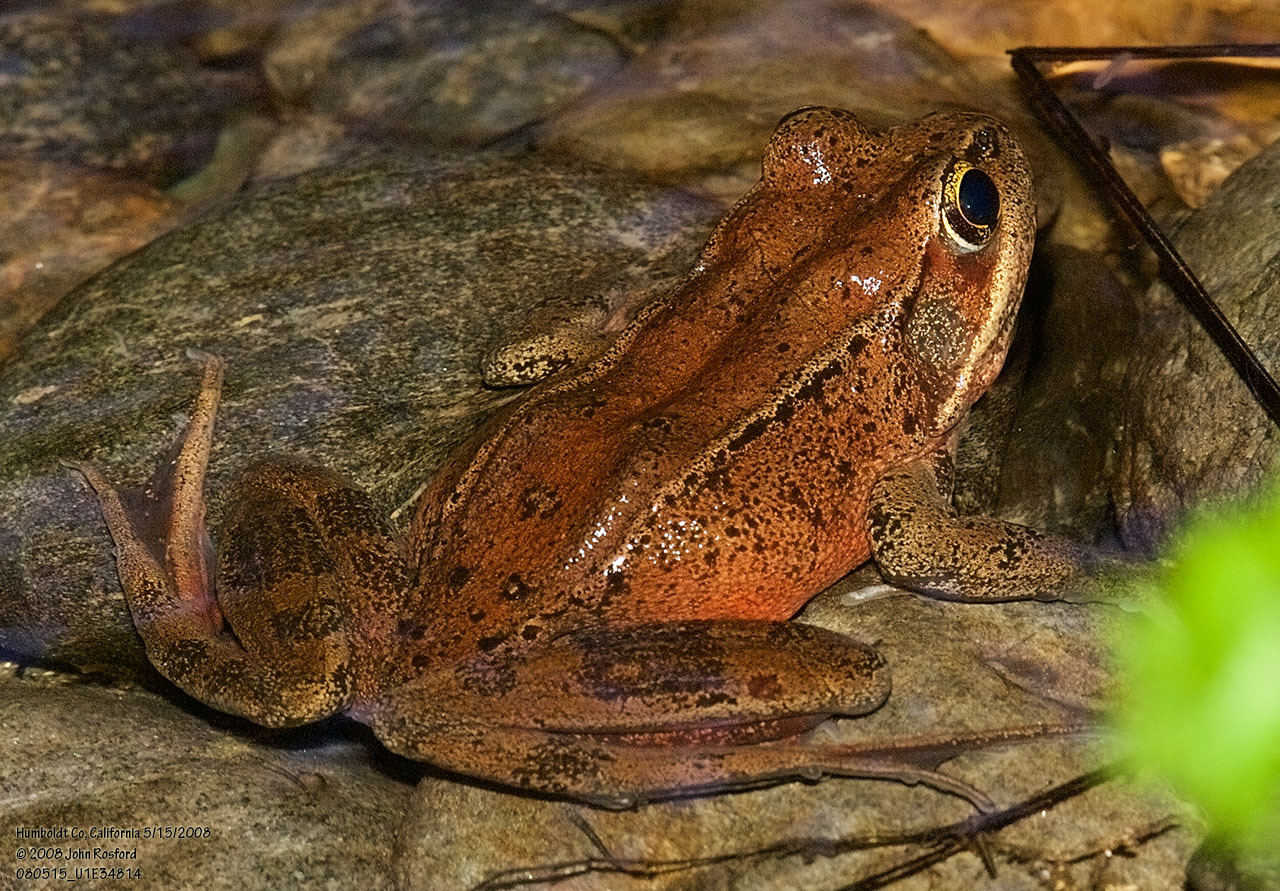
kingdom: Animalia
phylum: Chordata
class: Amphibia
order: Anura
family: Ranidae
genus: Rana
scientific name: Rana aurora
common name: Red-legged frog
